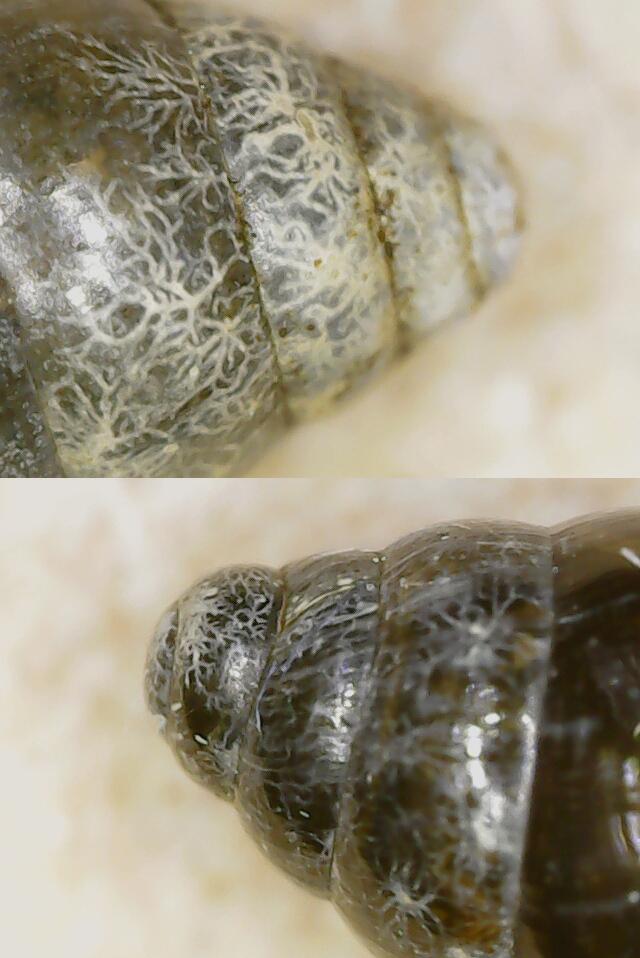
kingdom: Animalia
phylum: Mollusca
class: Gastropoda
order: Stylommatophora
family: Cochlicopidae
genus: Cochlicopa
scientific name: Cochlicopa nitens
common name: Robust pillar snail
